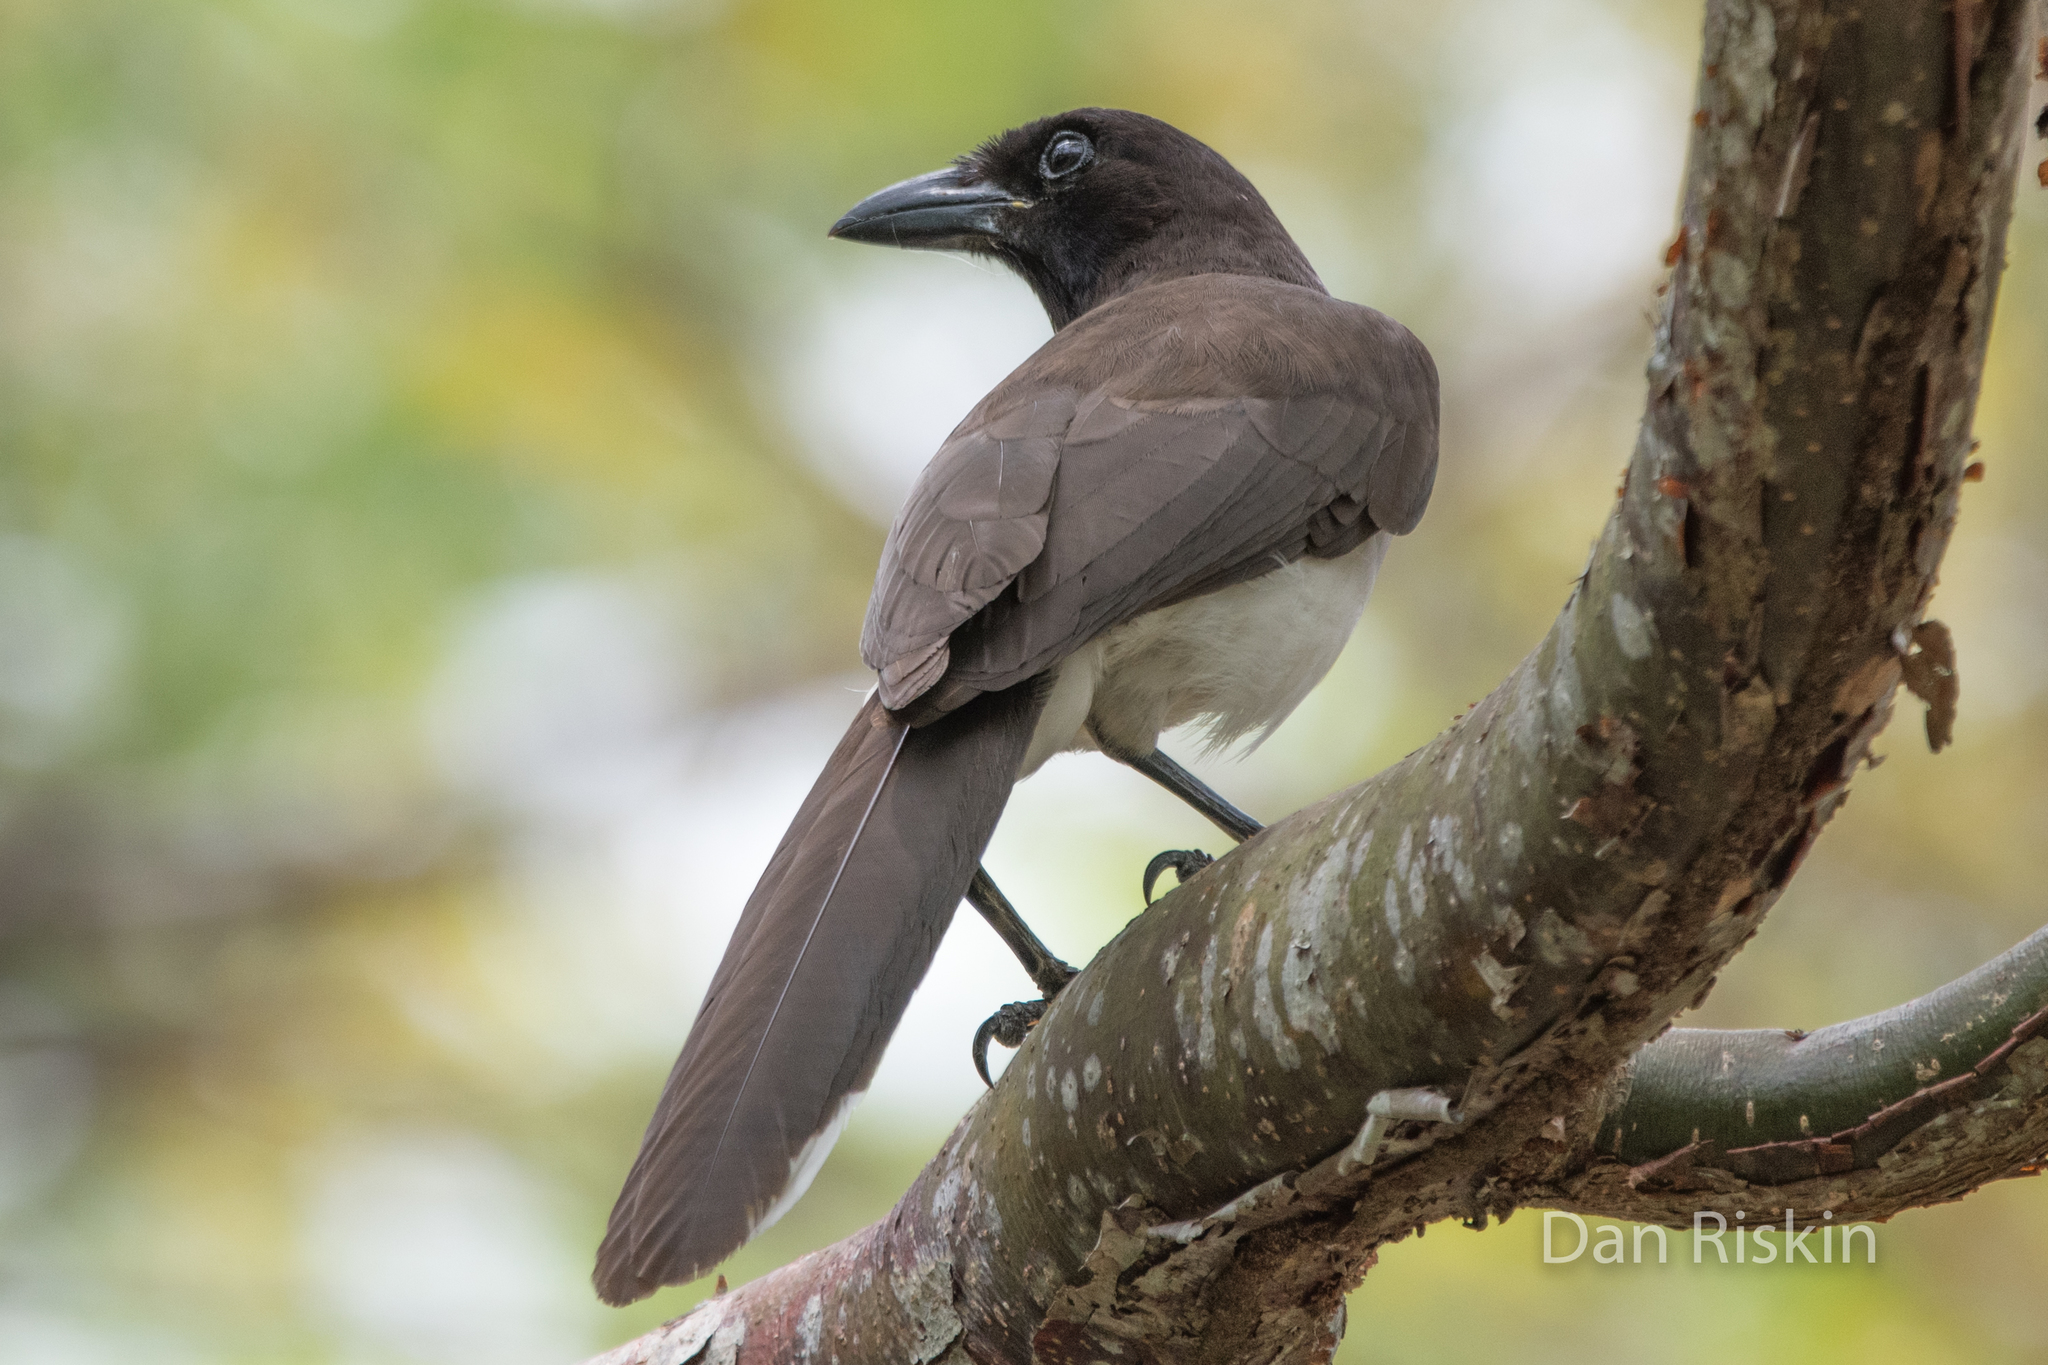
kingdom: Animalia
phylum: Chordata
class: Aves
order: Passeriformes
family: Corvidae
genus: Psilorhinus
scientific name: Psilorhinus morio
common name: Brown jay
